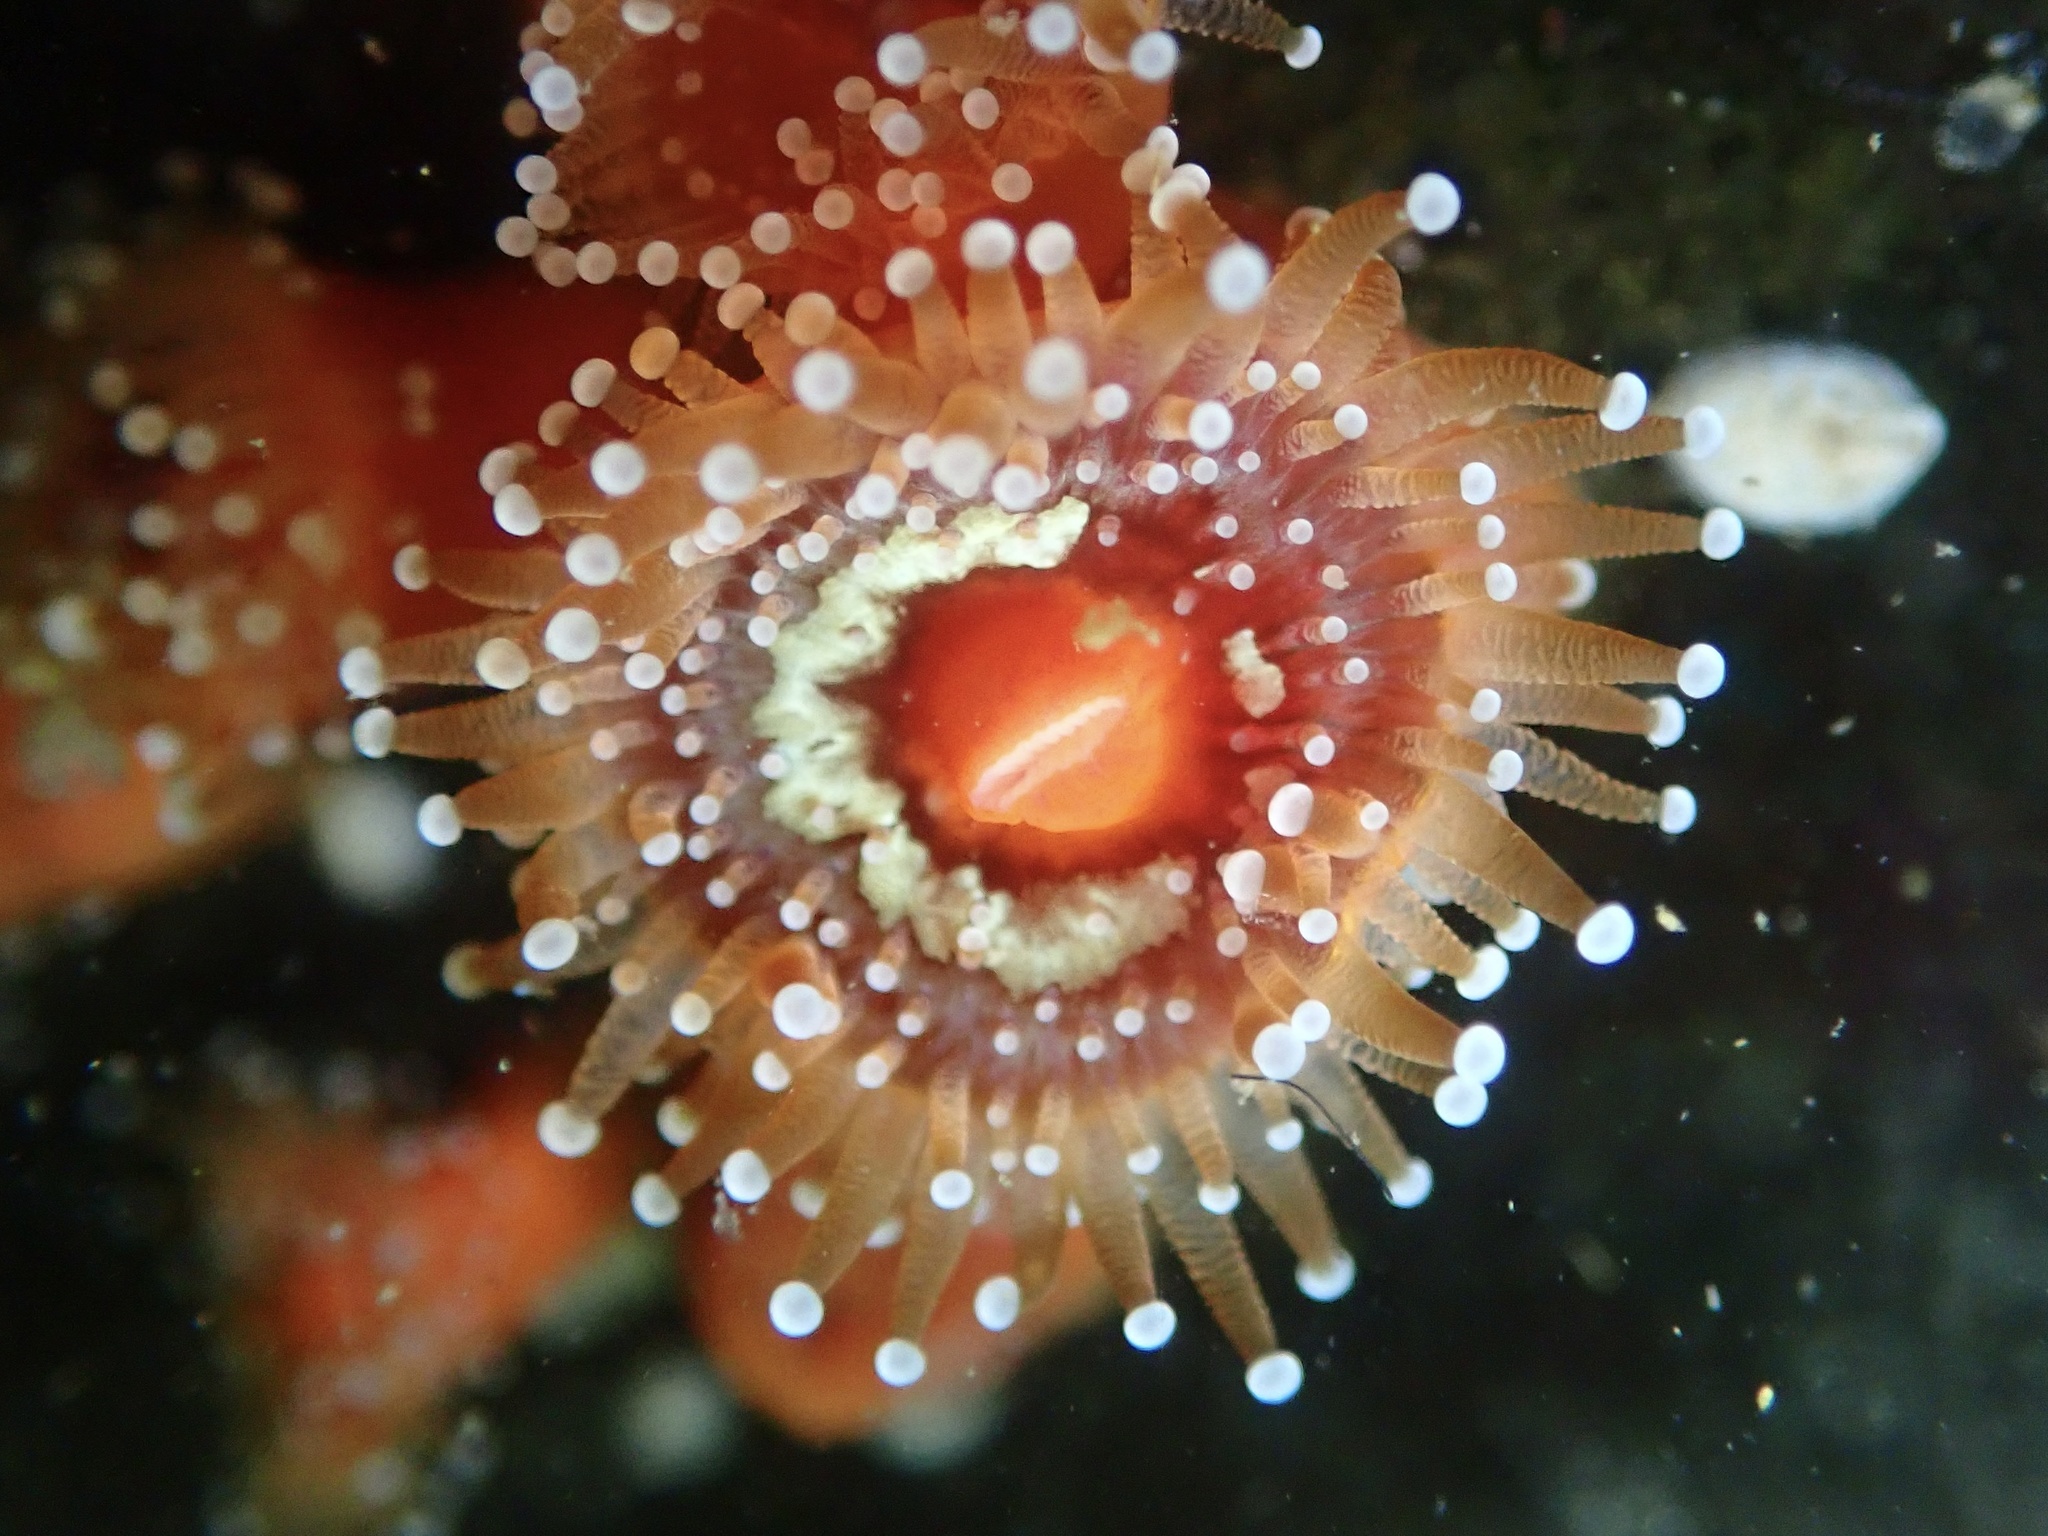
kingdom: Animalia
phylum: Cnidaria
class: Anthozoa
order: Corallimorpharia
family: Corallimorphidae
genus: Corynactis
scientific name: Corynactis californica
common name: Strawberry corallimorpharian
